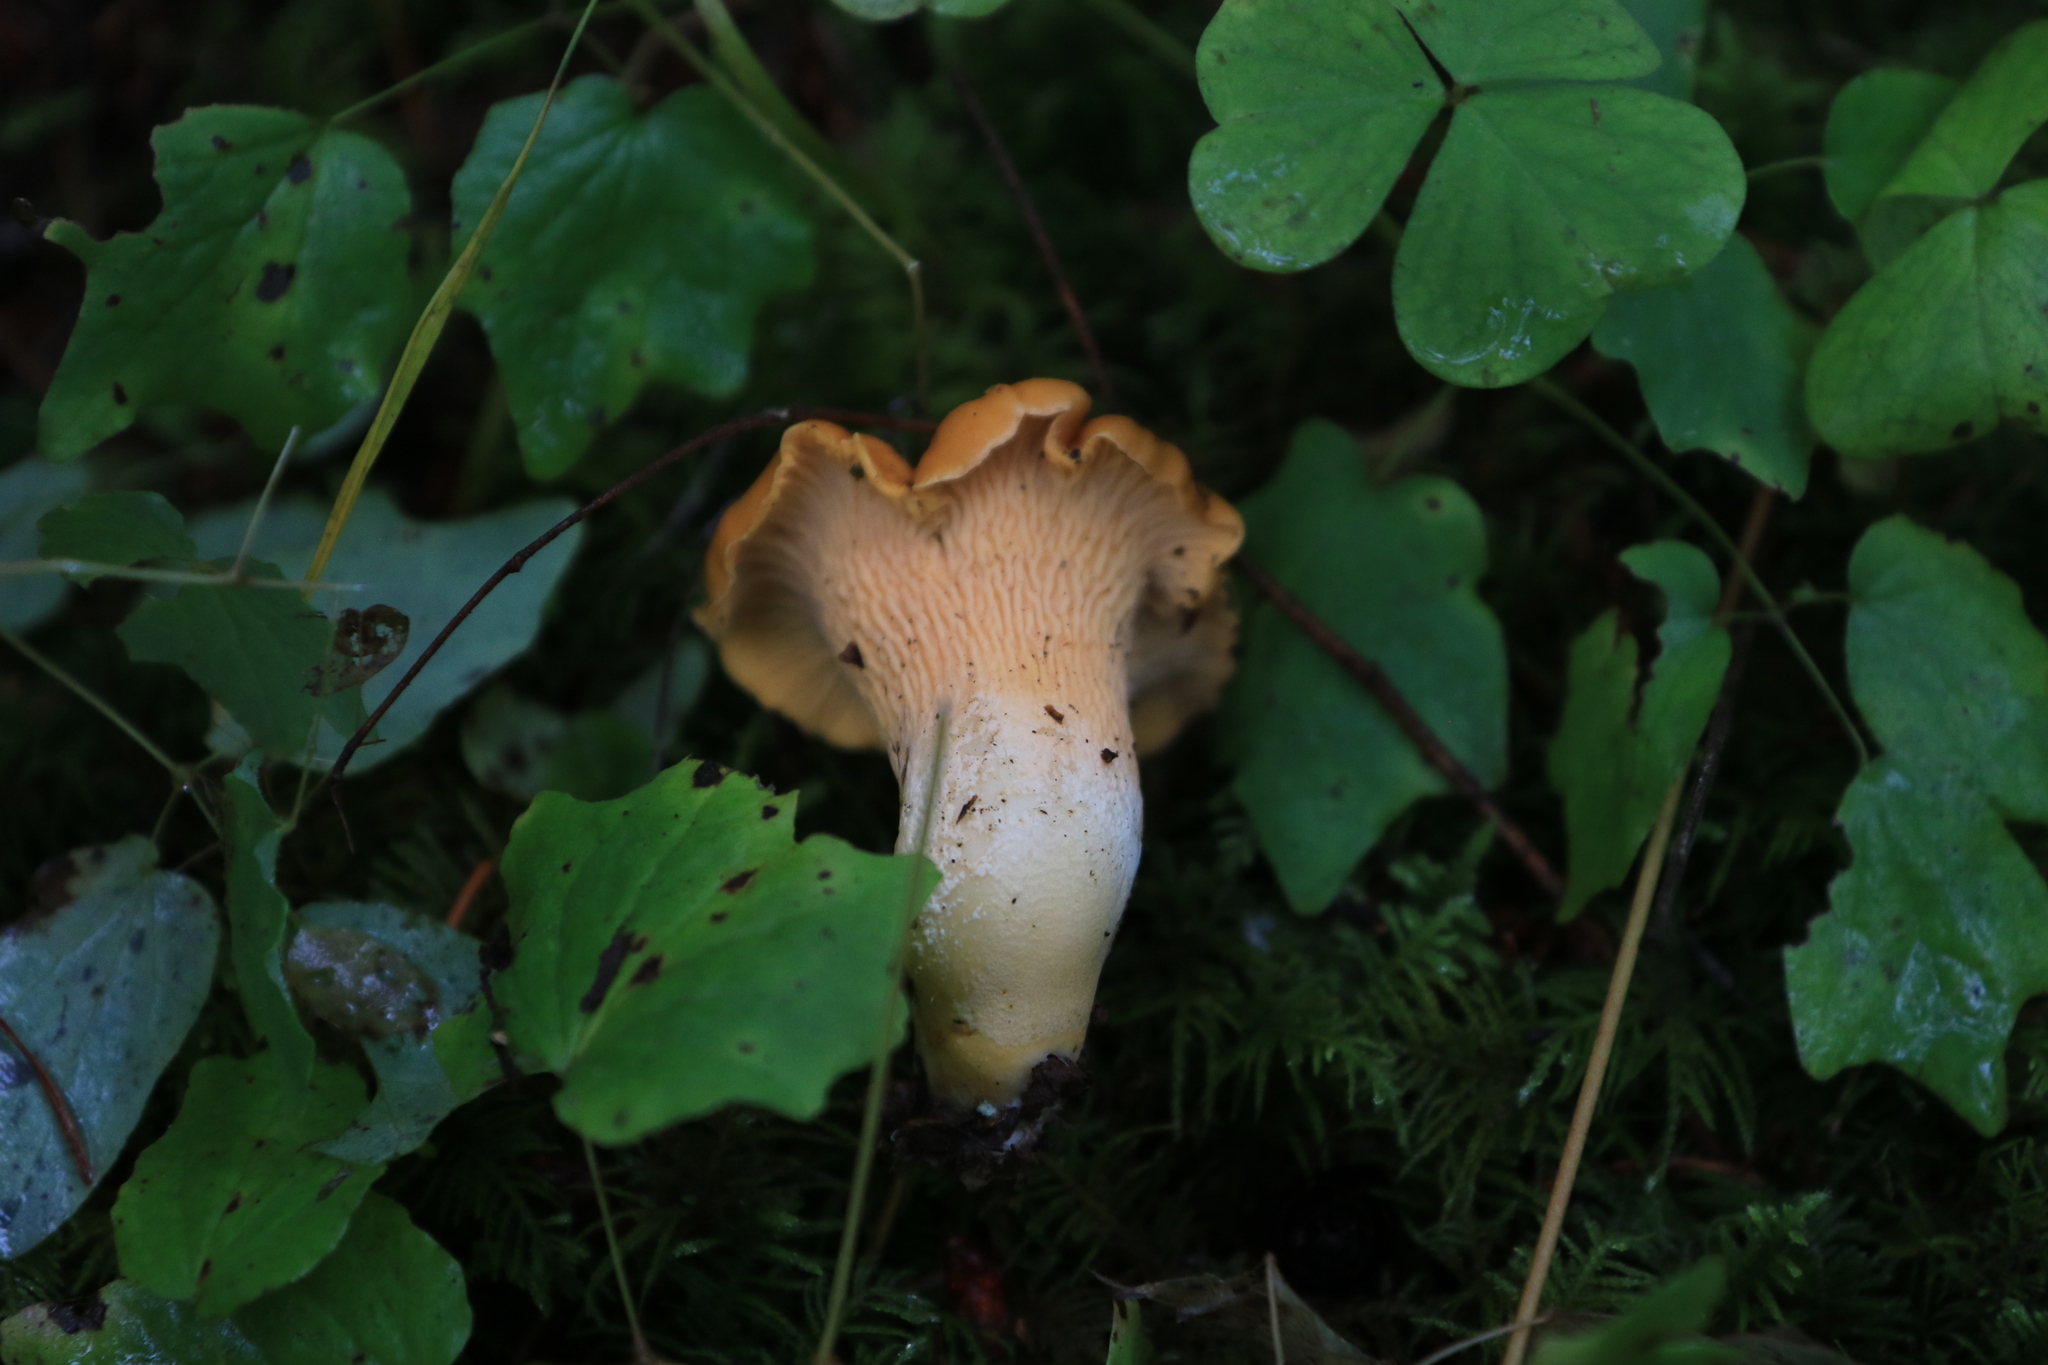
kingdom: Fungi
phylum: Basidiomycota
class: Agaricomycetes
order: Cantharellales
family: Hydnaceae
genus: Cantharellus
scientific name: Cantharellus formosus
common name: Pacific golden chanterelle
